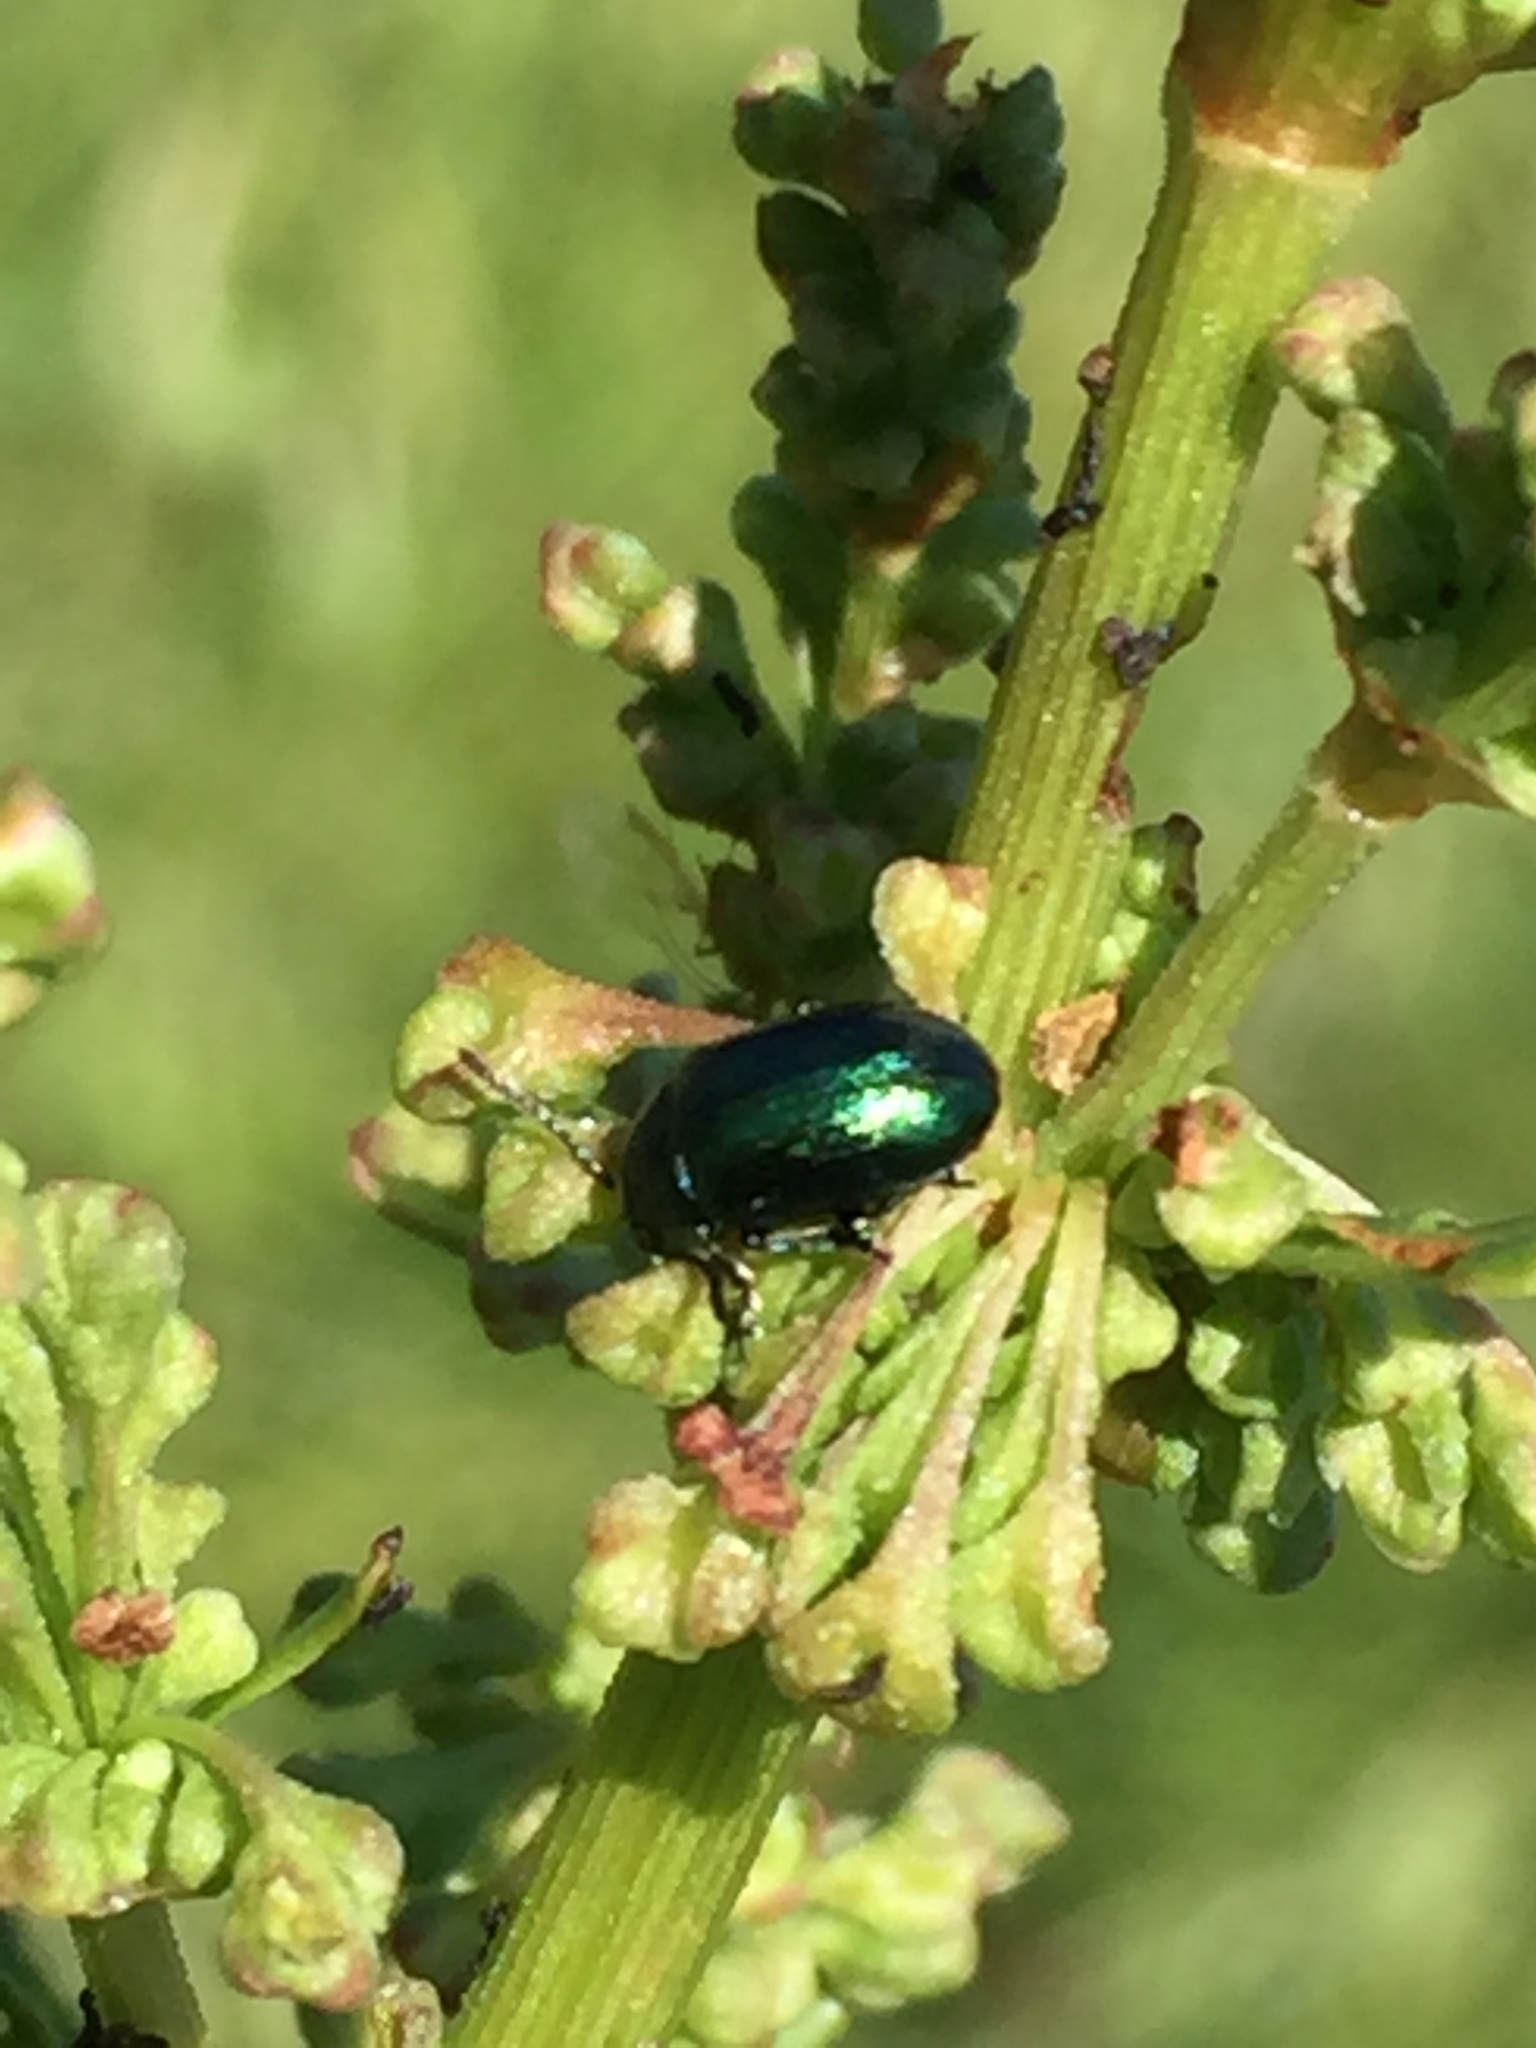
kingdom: Animalia
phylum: Arthropoda
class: Insecta
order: Coleoptera
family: Chrysomelidae
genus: Gastrophysa
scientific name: Gastrophysa cyanea
